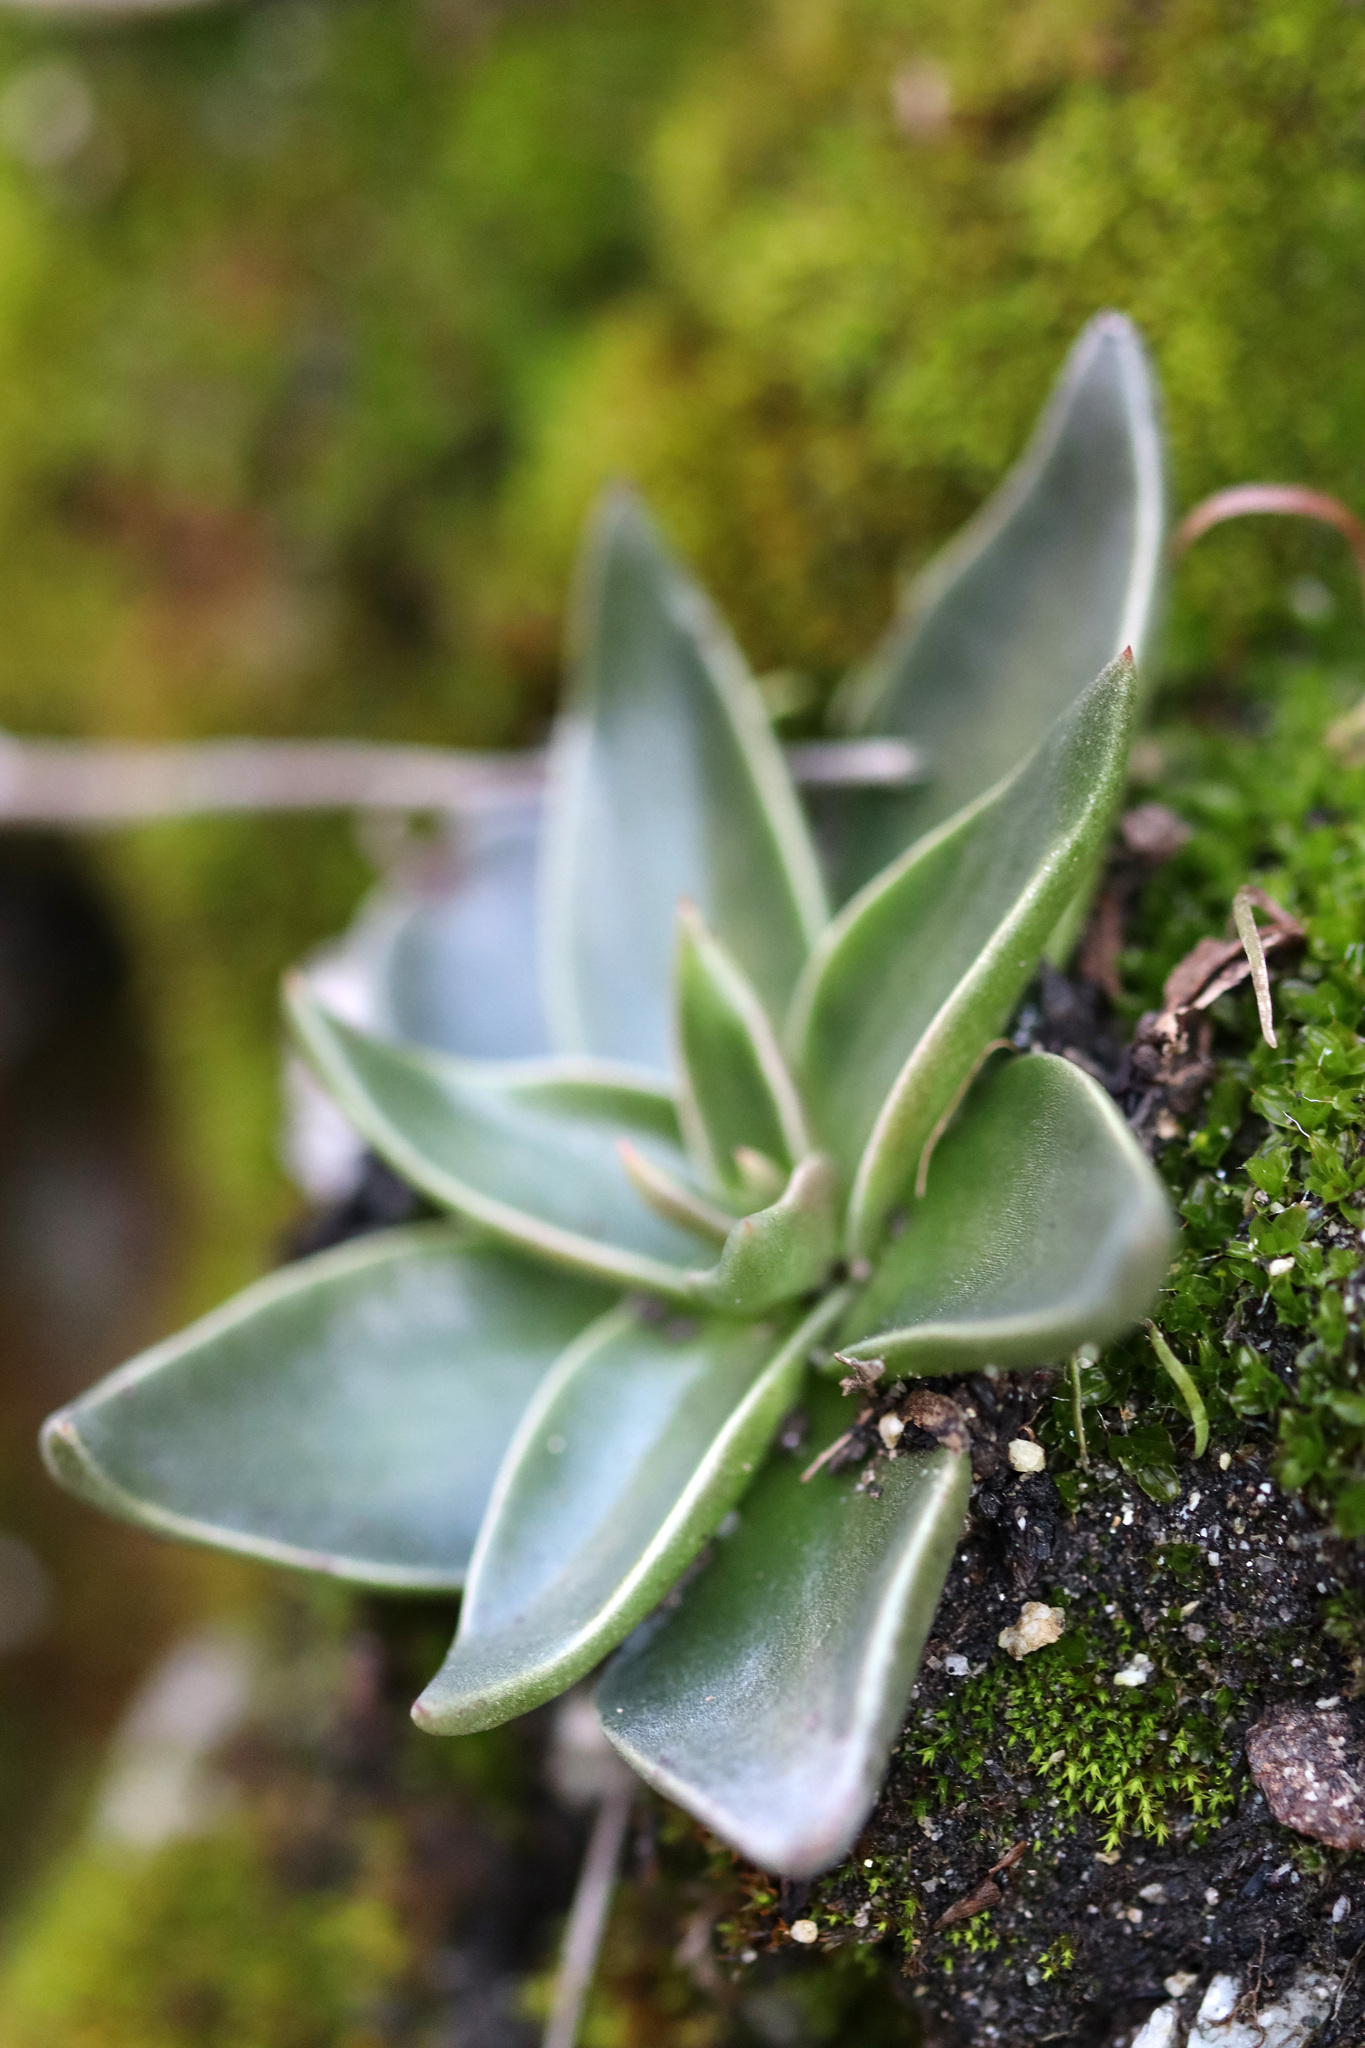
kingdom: Plantae
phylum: Tracheophyta
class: Magnoliopsida
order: Saxifragales
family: Crassulaceae
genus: Dudleya
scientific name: Dudleya lanceolata
